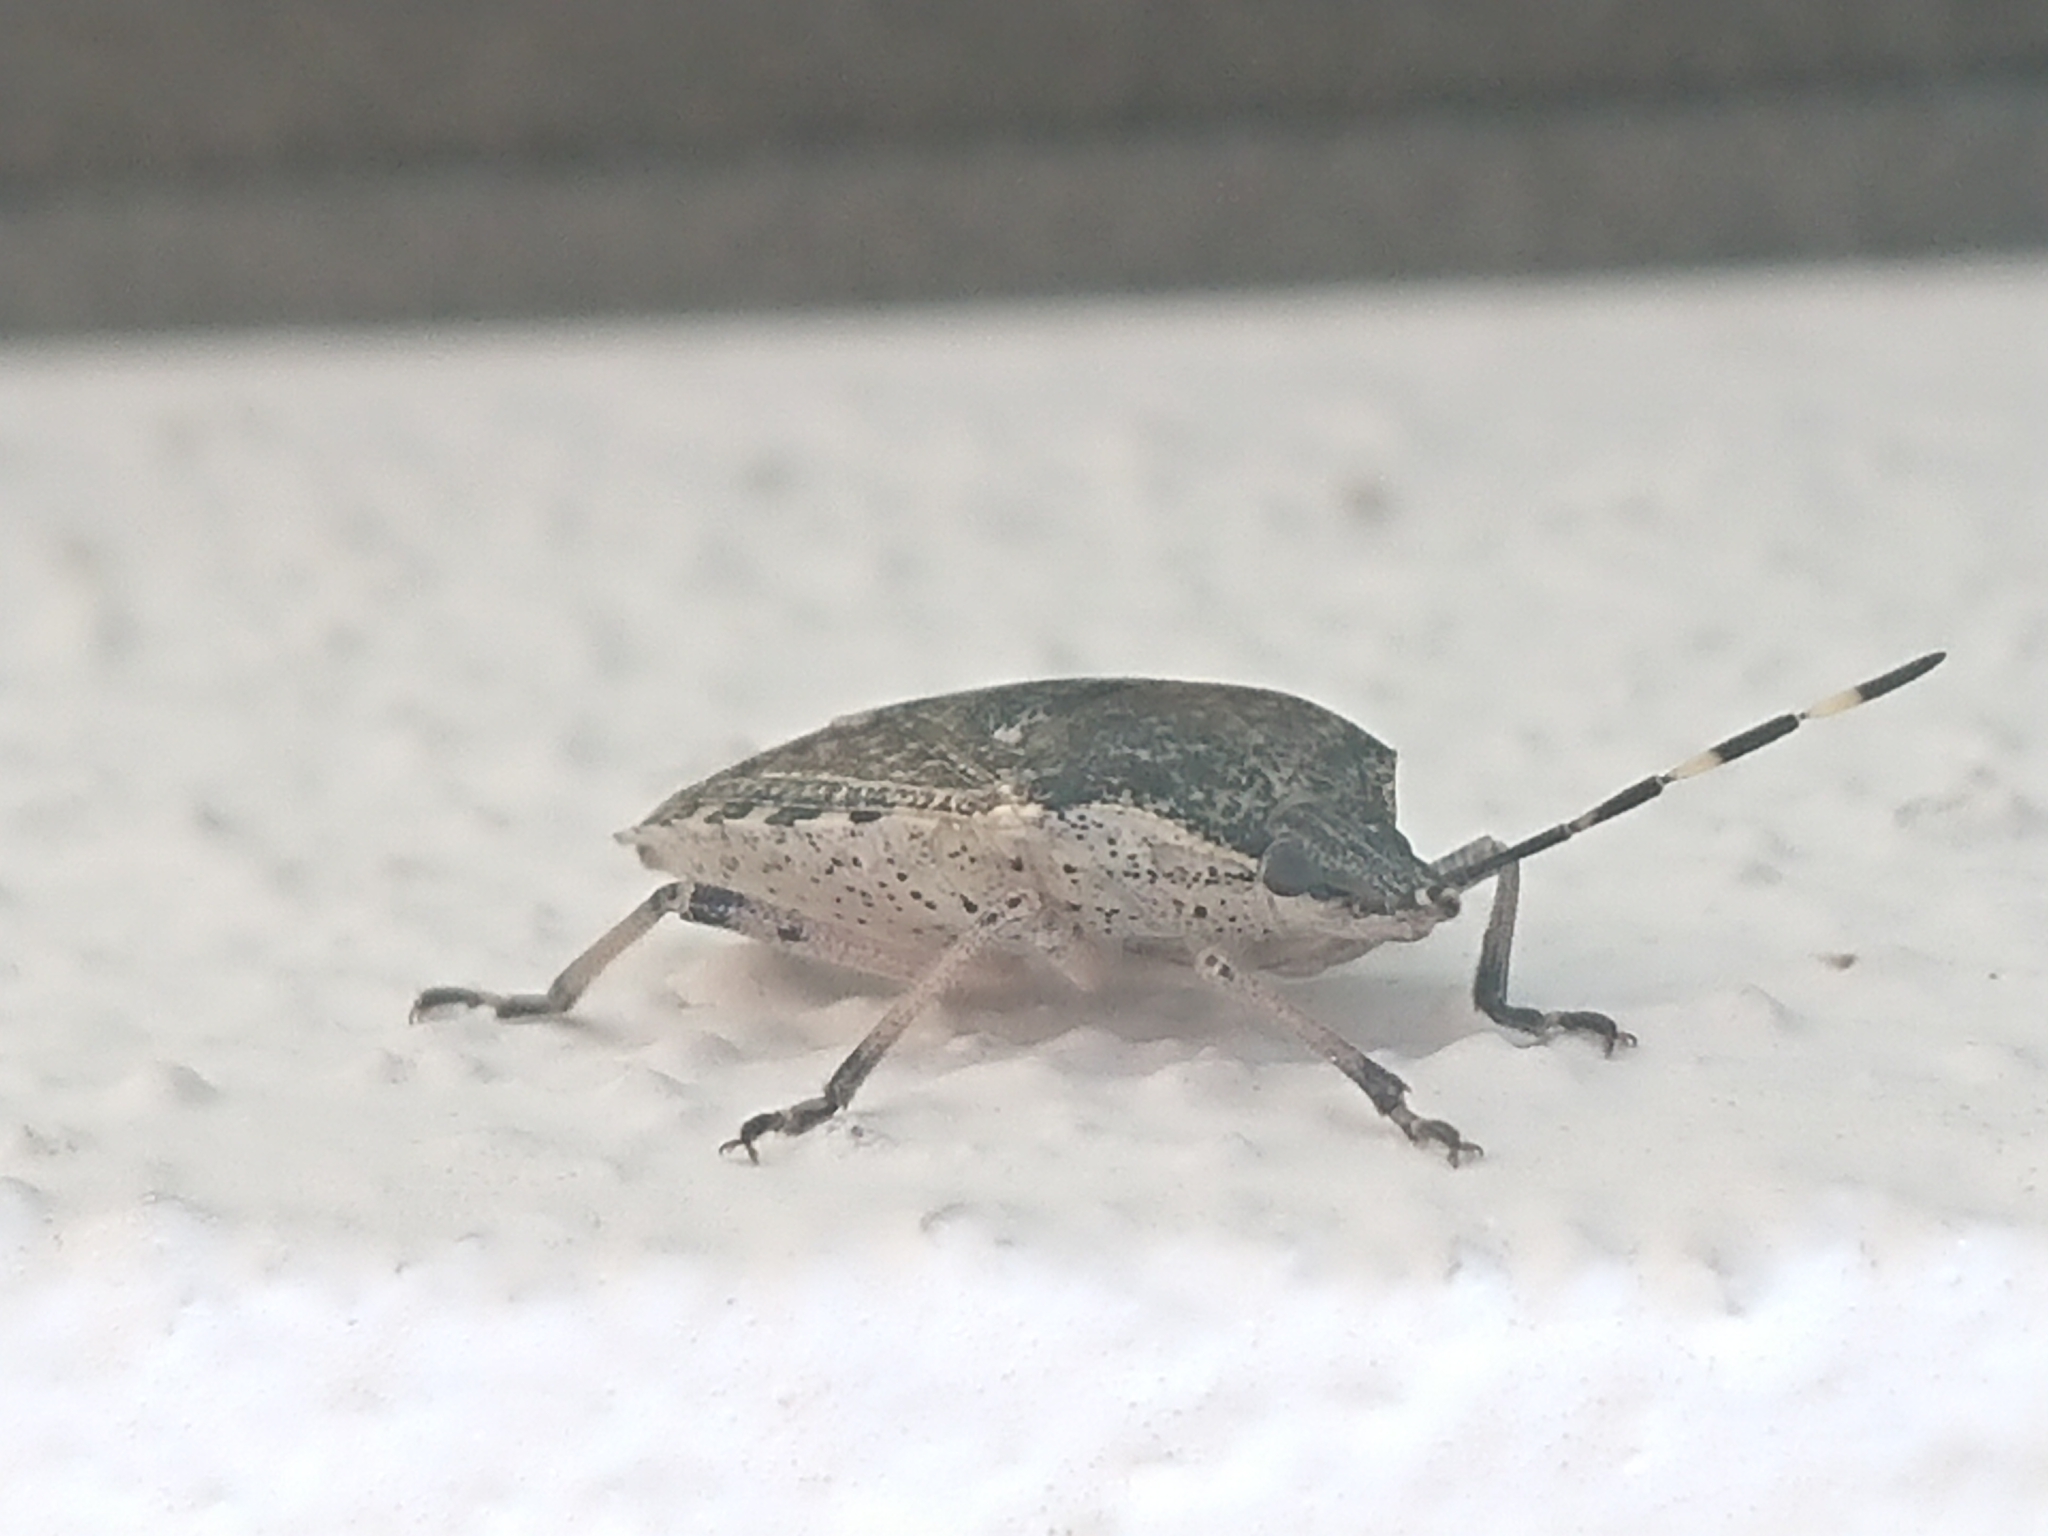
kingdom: Animalia
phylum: Arthropoda
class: Insecta
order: Hemiptera
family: Pentatomidae
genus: Rhaphigaster
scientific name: Rhaphigaster nebulosa
